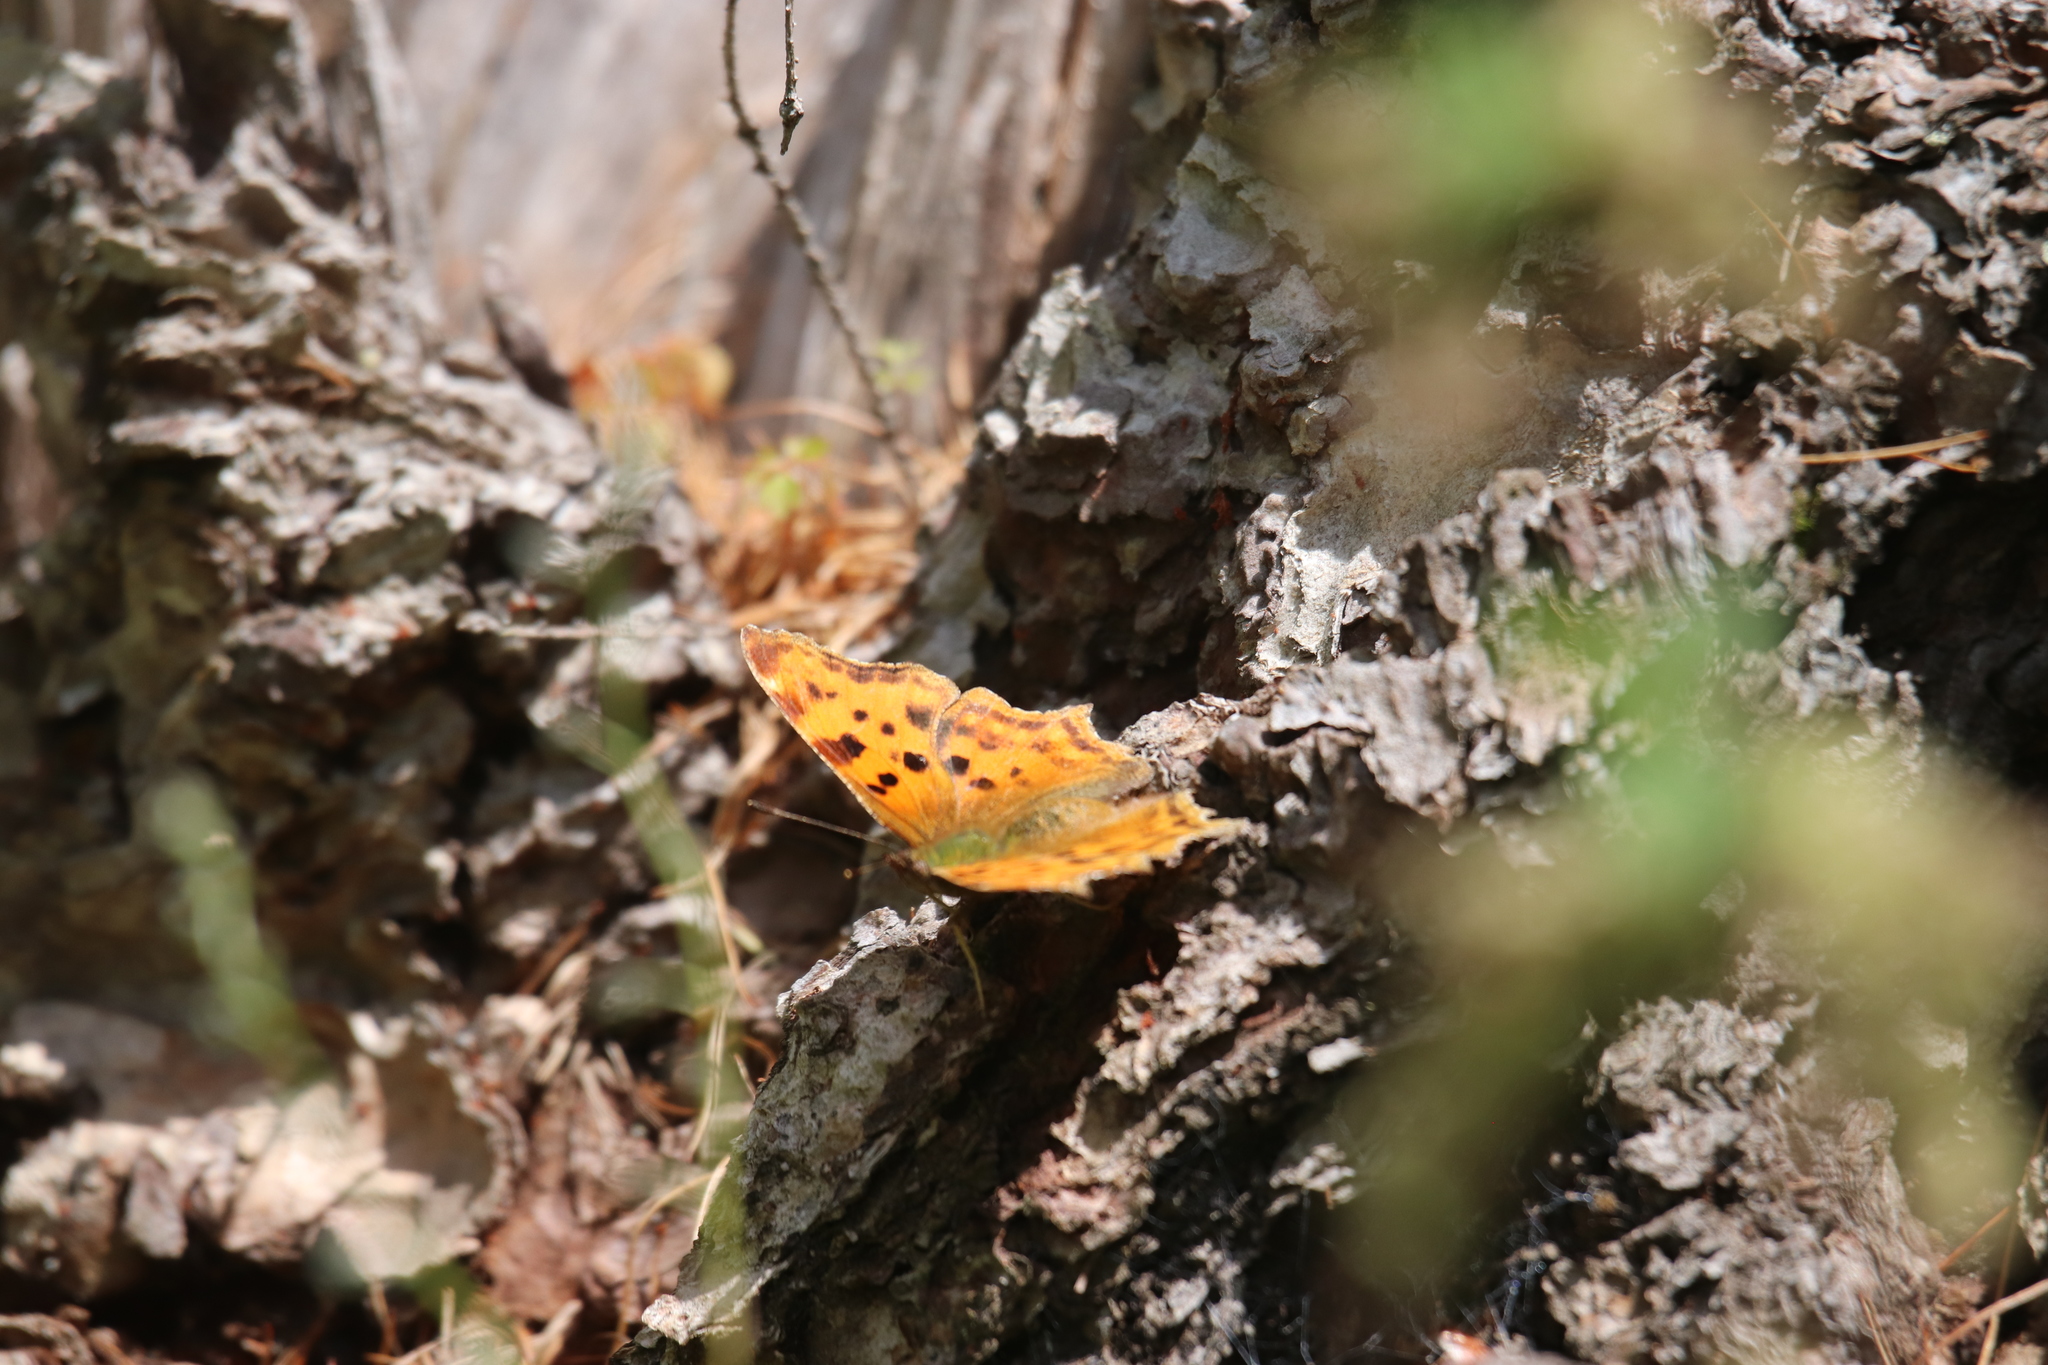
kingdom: Animalia
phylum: Arthropoda
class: Insecta
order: Lepidoptera
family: Nymphalidae
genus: Polygonia
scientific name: Polygonia c-album
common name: Comma
